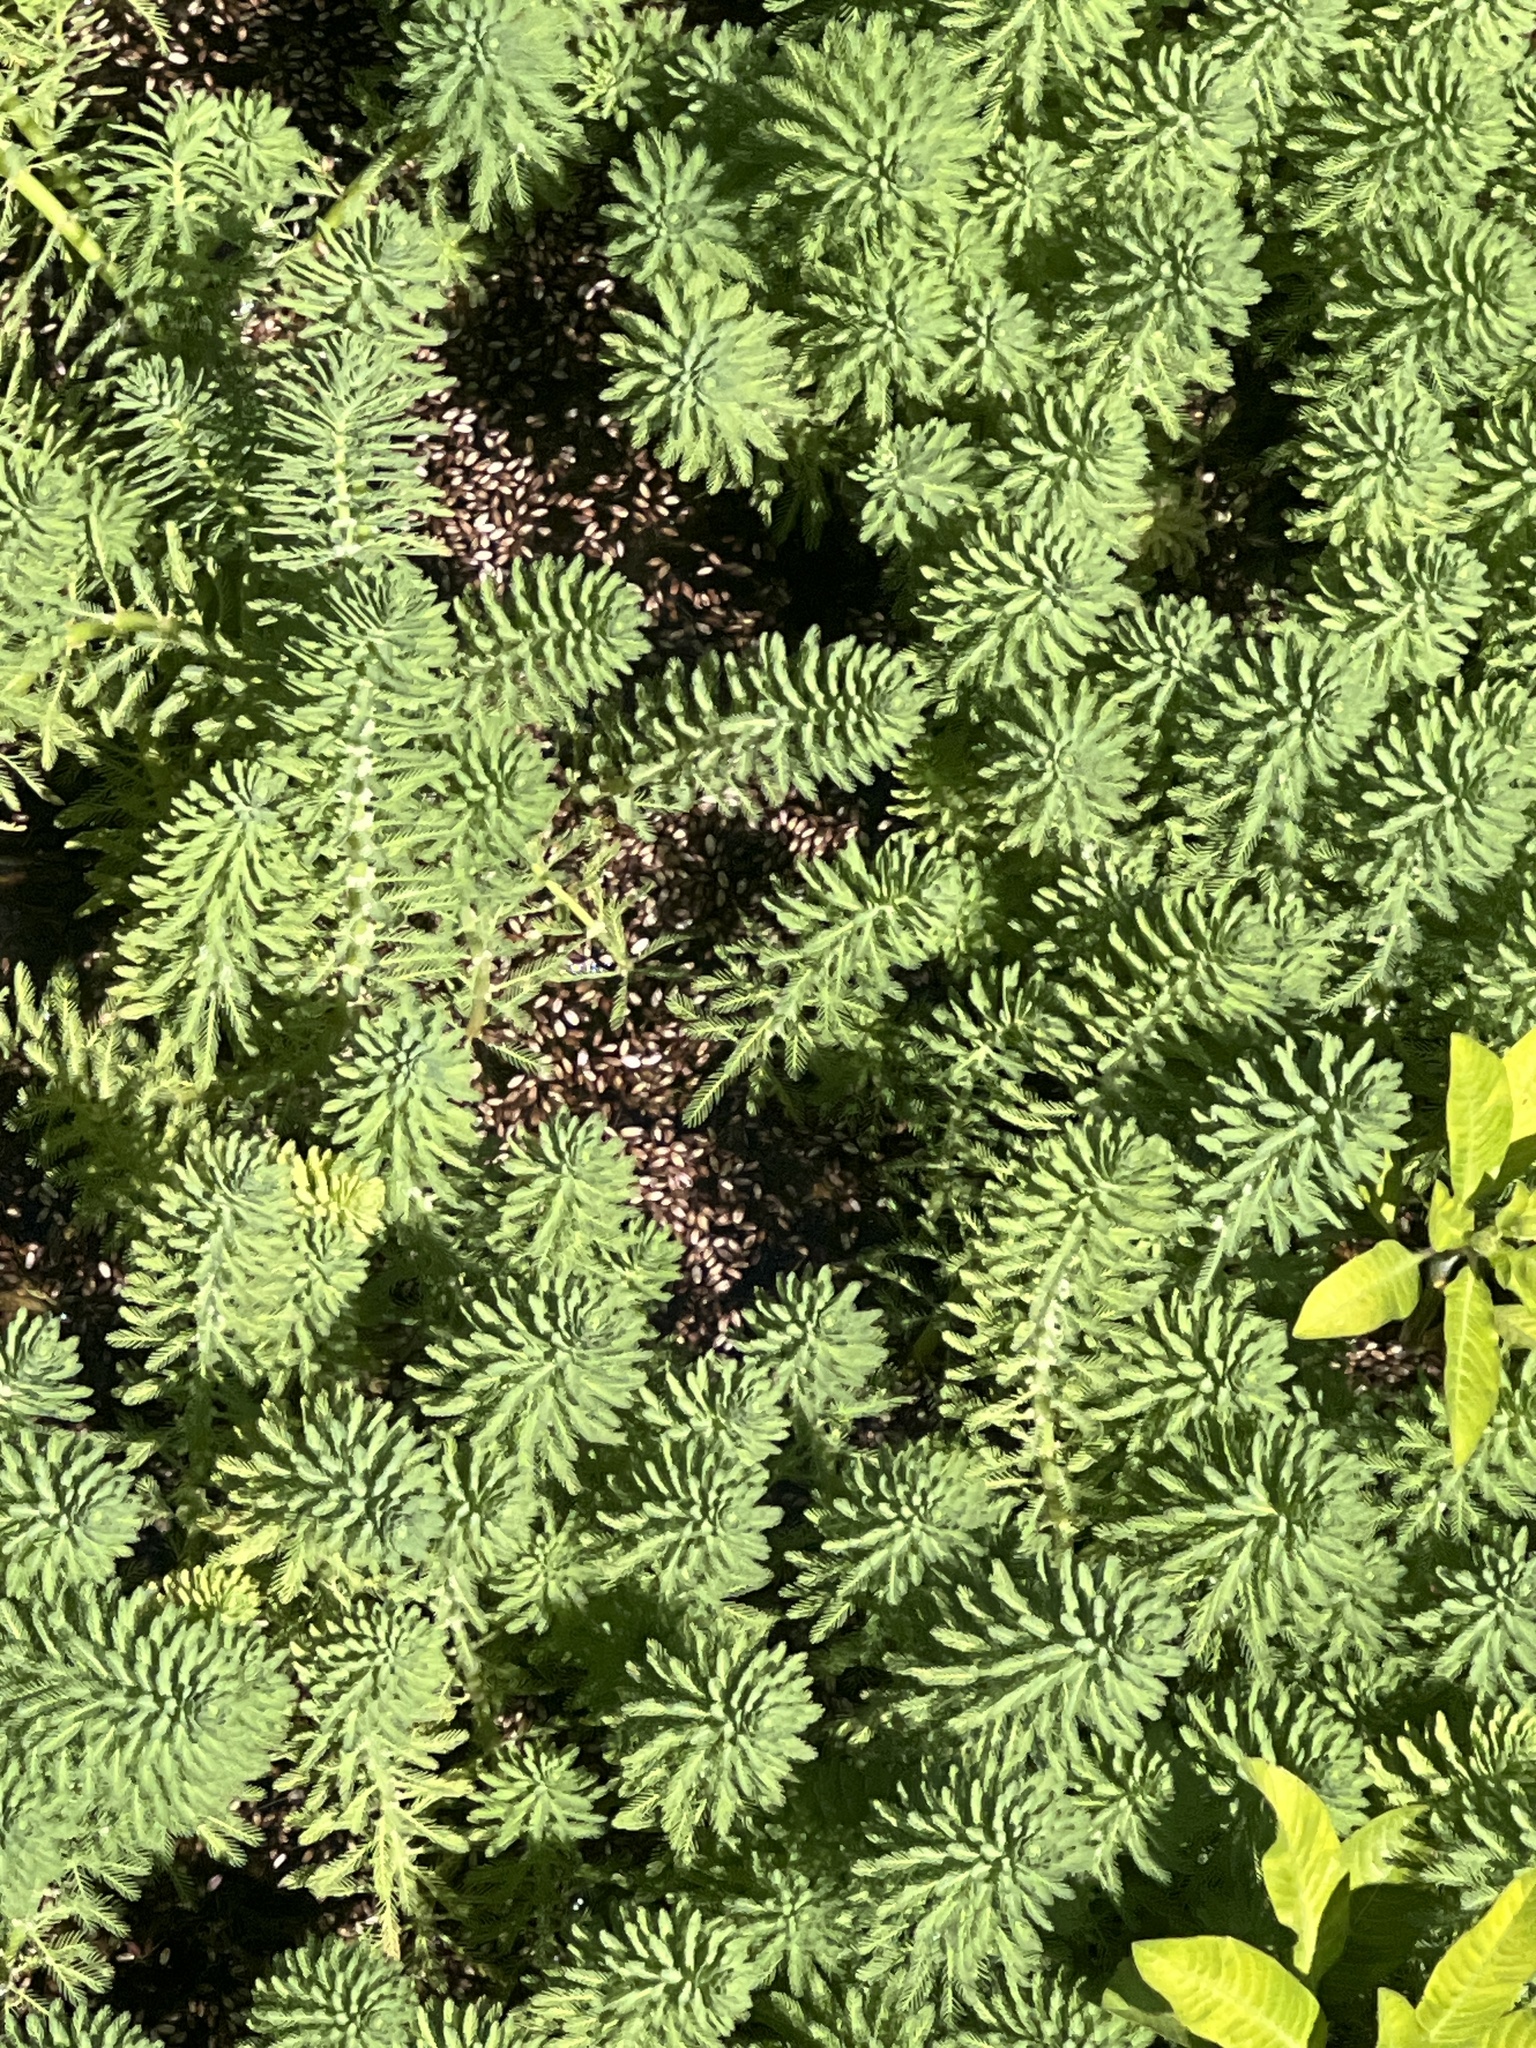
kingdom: Plantae
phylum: Tracheophyta
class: Magnoliopsida
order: Saxifragales
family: Haloragaceae
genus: Myriophyllum
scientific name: Myriophyllum aquaticum
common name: Parrot's feather
